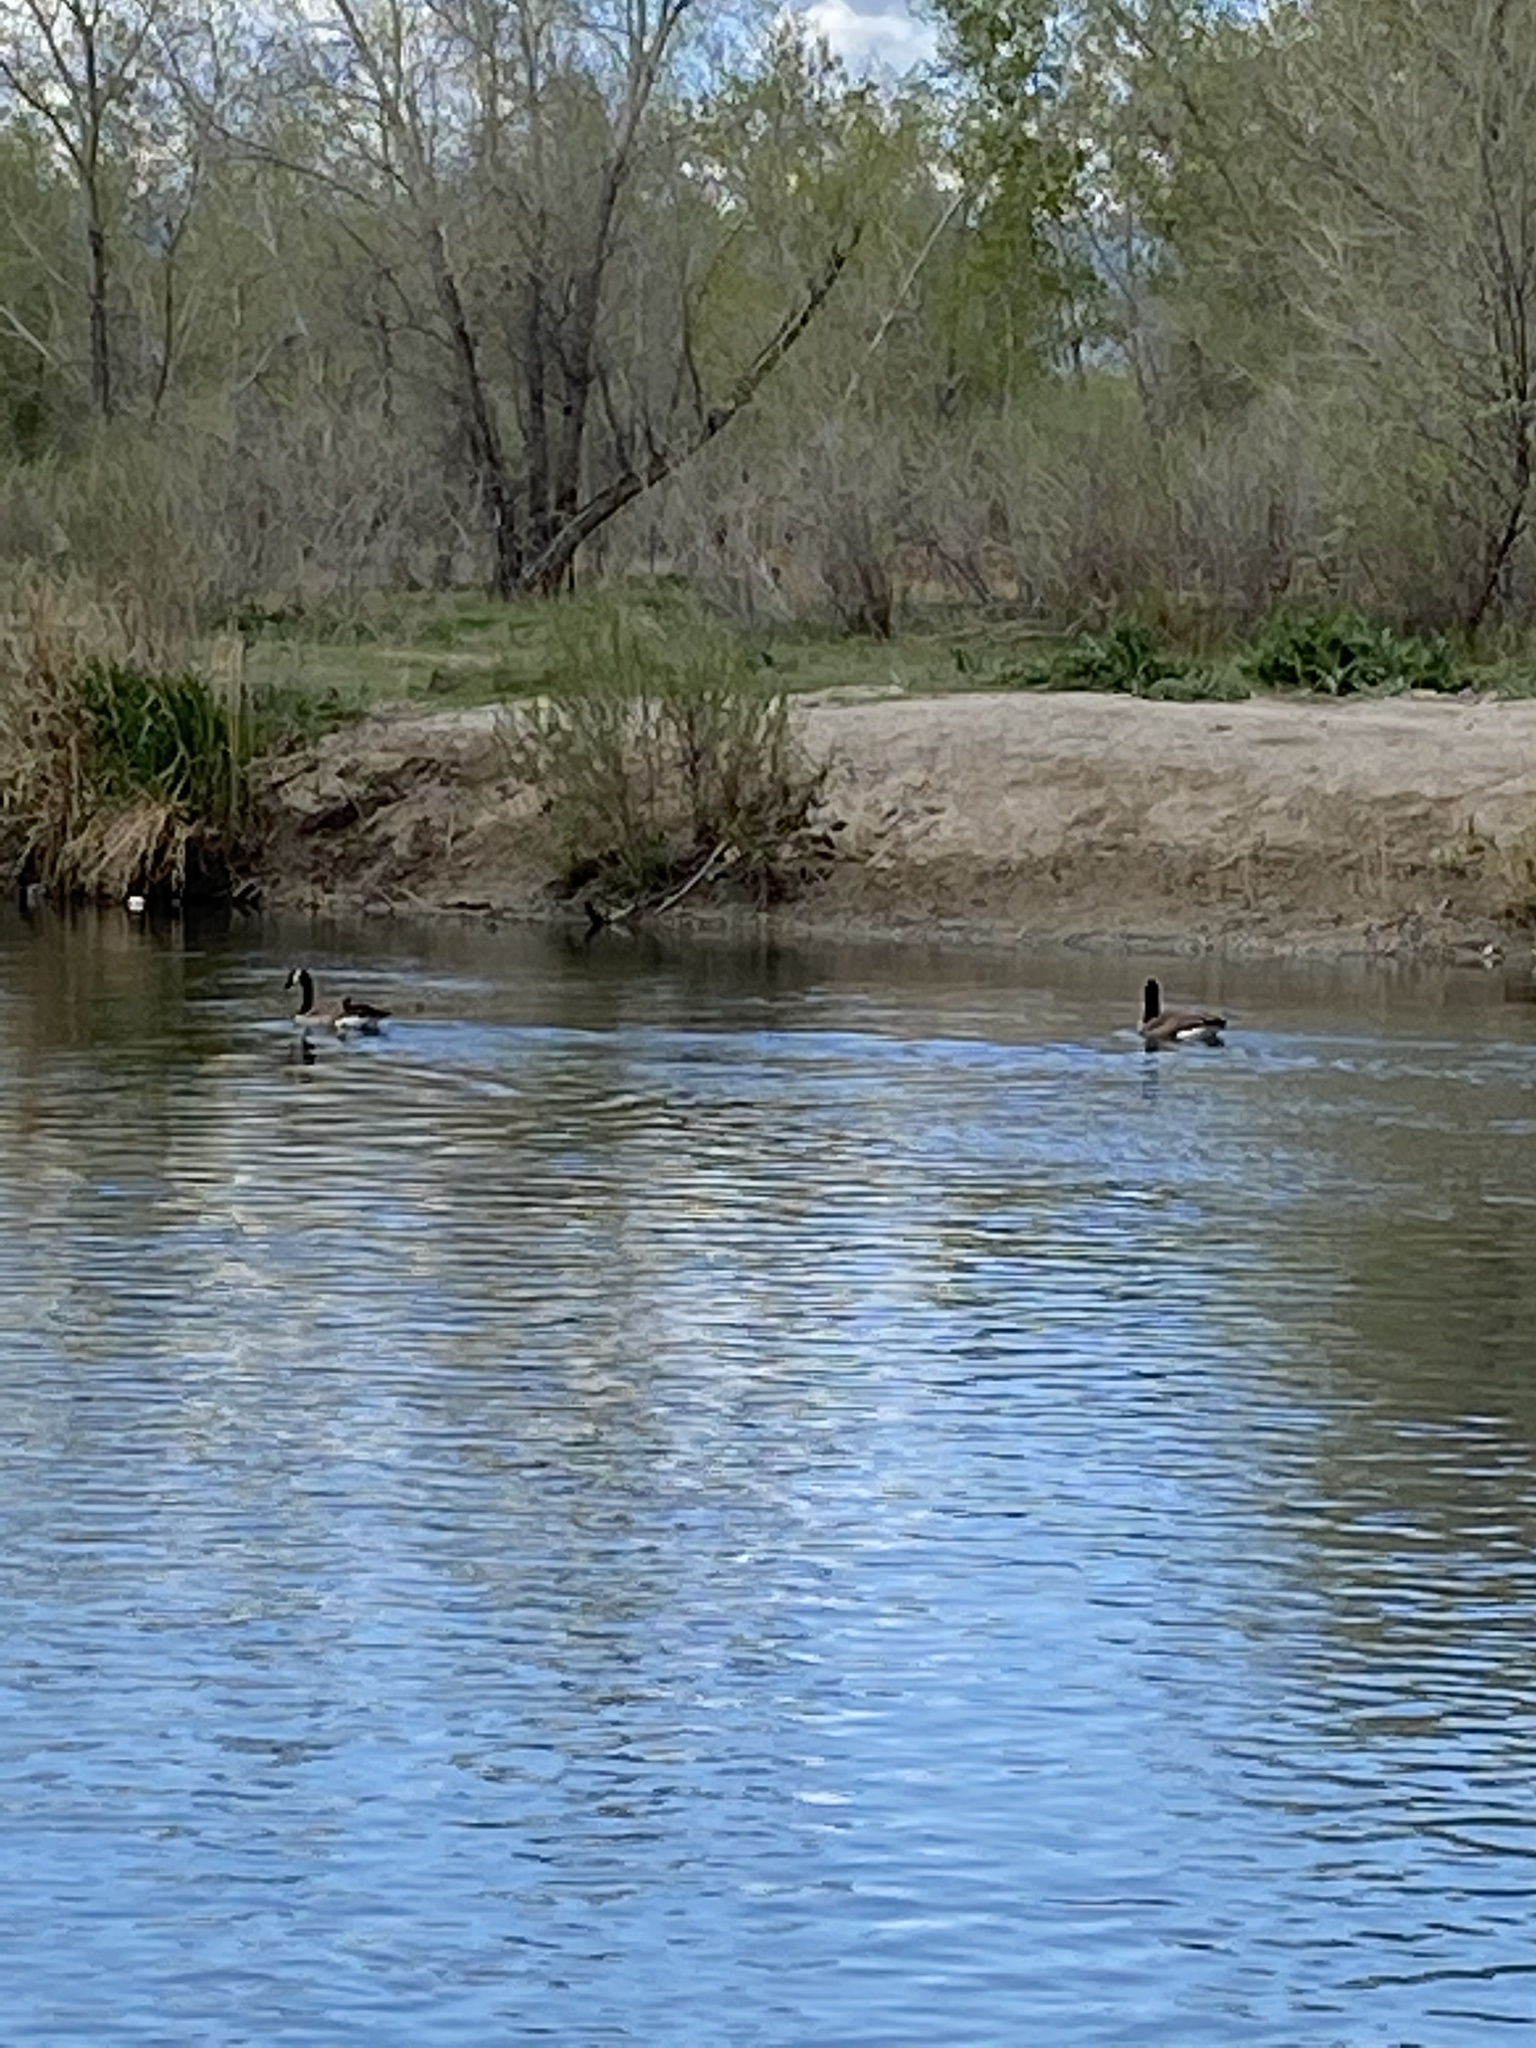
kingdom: Animalia
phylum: Chordata
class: Aves
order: Anseriformes
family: Anatidae
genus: Branta
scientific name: Branta canadensis
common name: Canada goose
